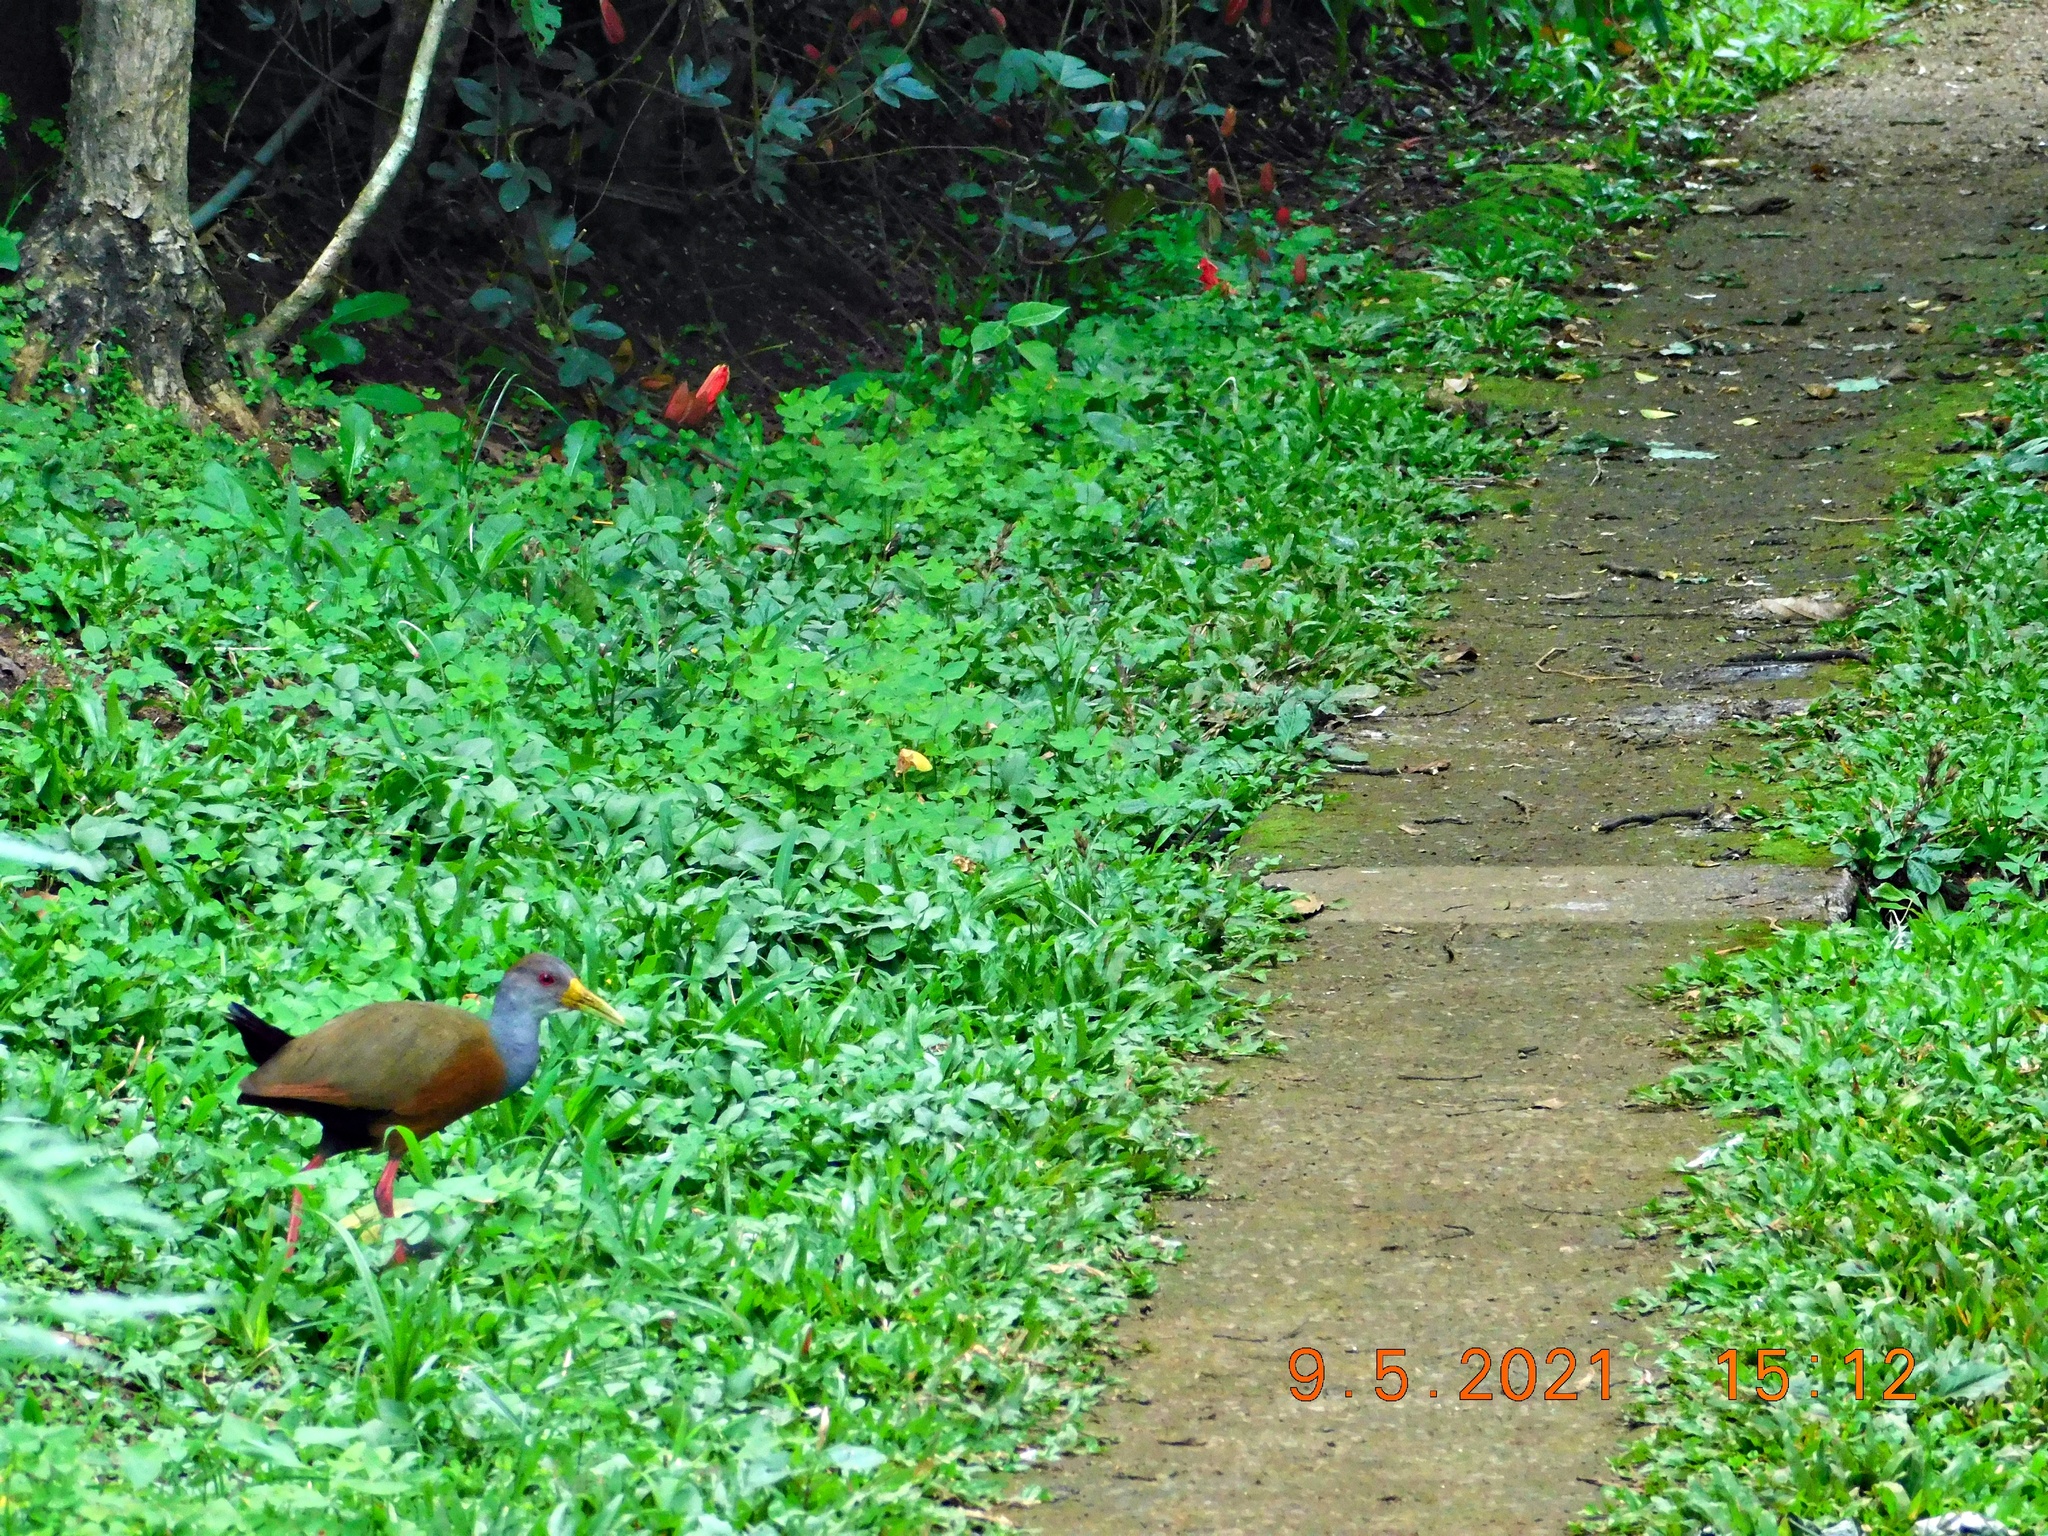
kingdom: Animalia
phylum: Chordata
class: Aves
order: Gruiformes
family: Rallidae
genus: Aramides
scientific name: Aramides cajanea
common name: Gray-necked wood-rail
